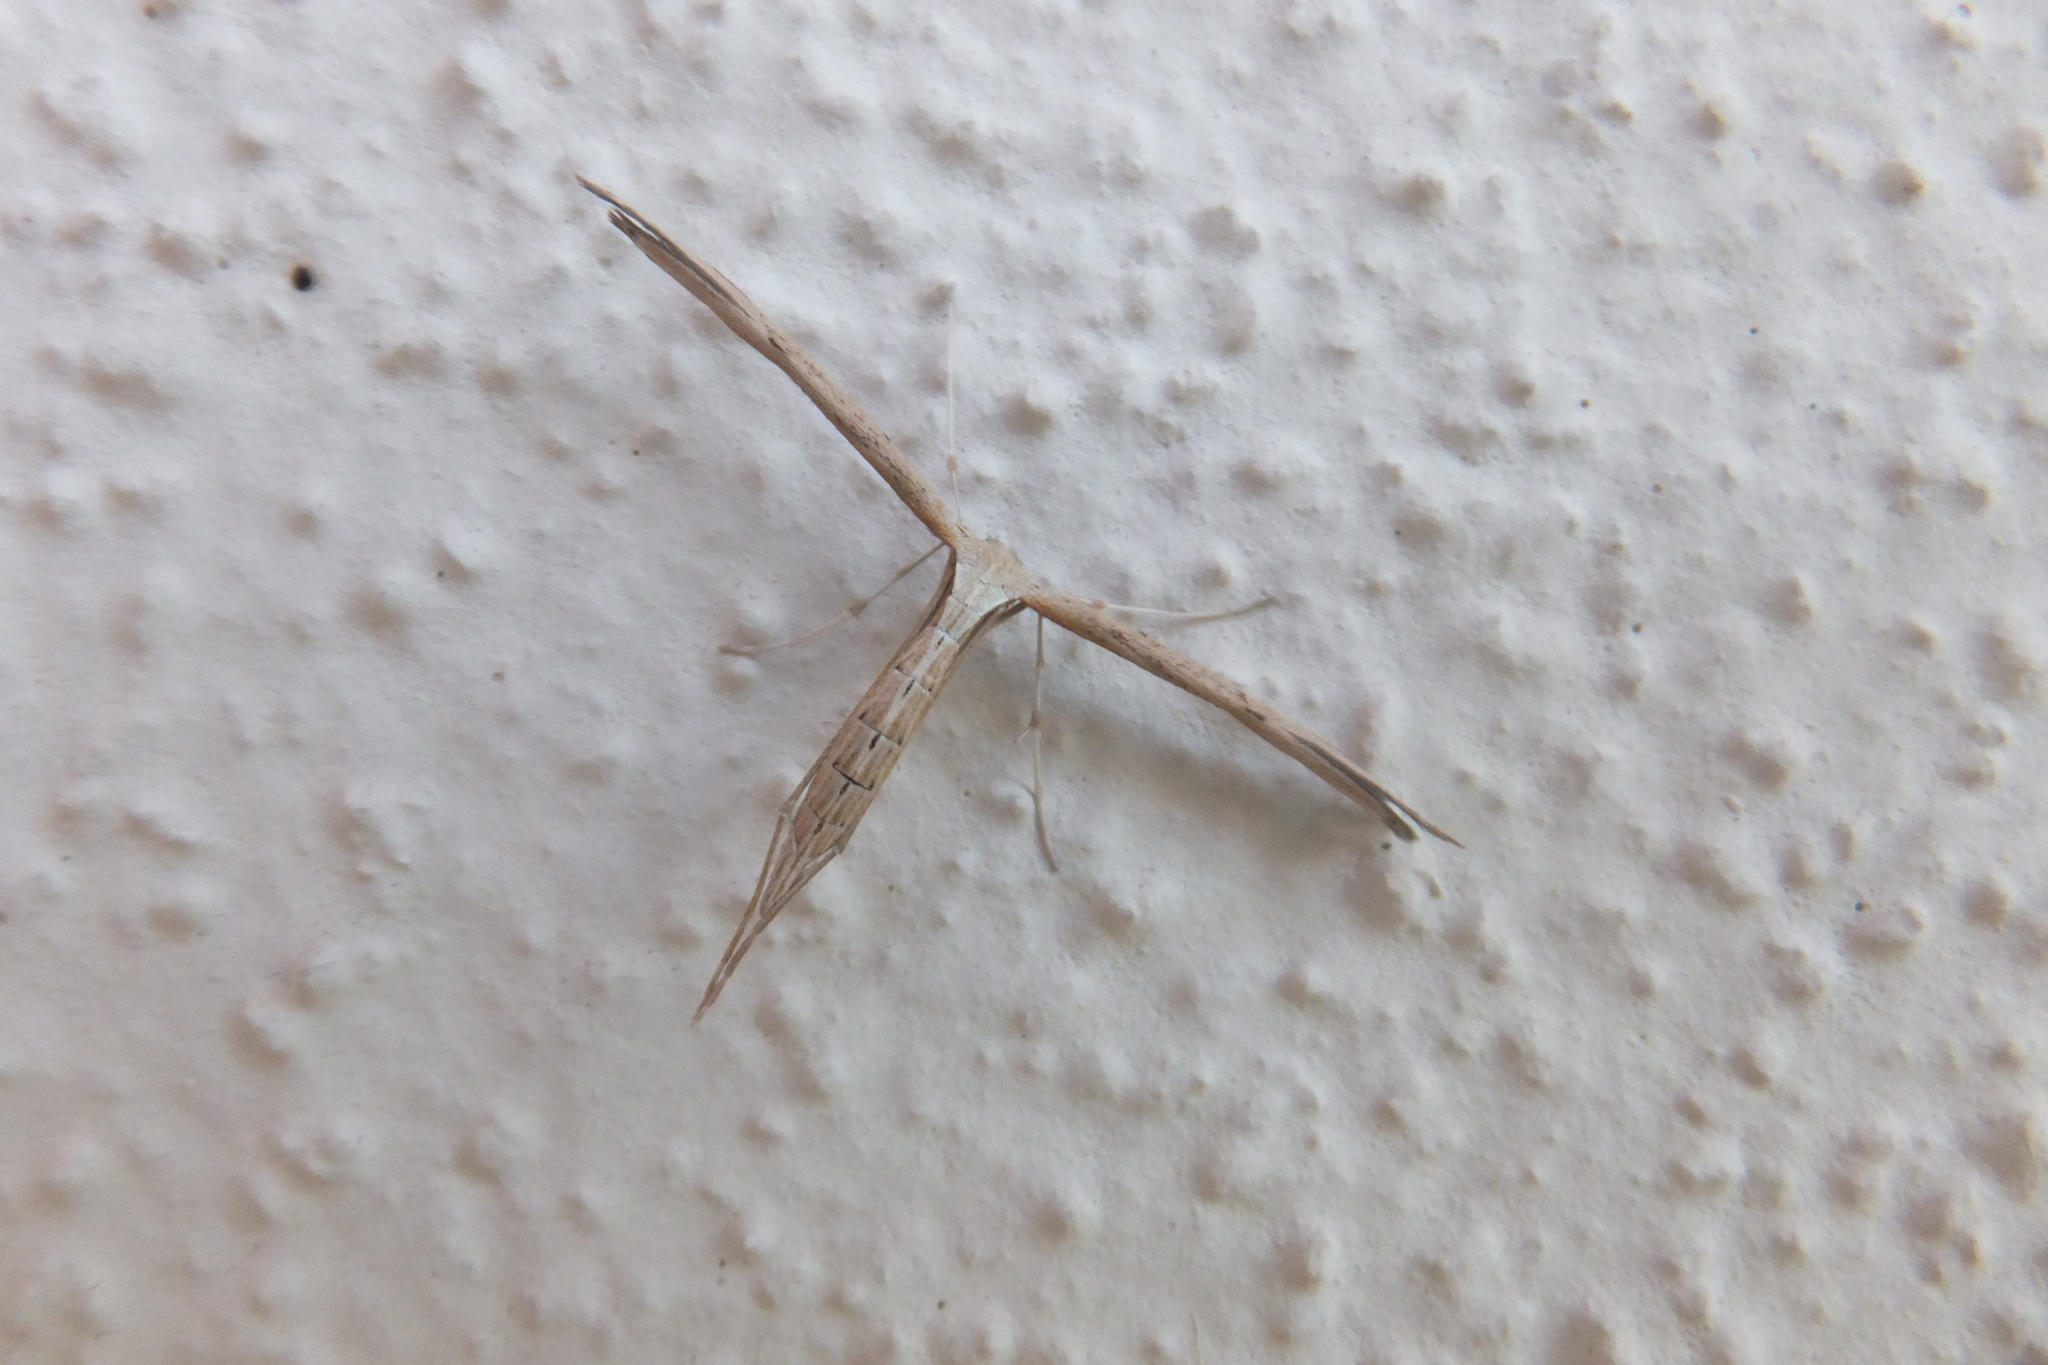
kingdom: Animalia
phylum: Arthropoda
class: Insecta
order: Lepidoptera
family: Pterophoridae
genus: Emmelina
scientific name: Emmelina monodactyla
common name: Common plume
